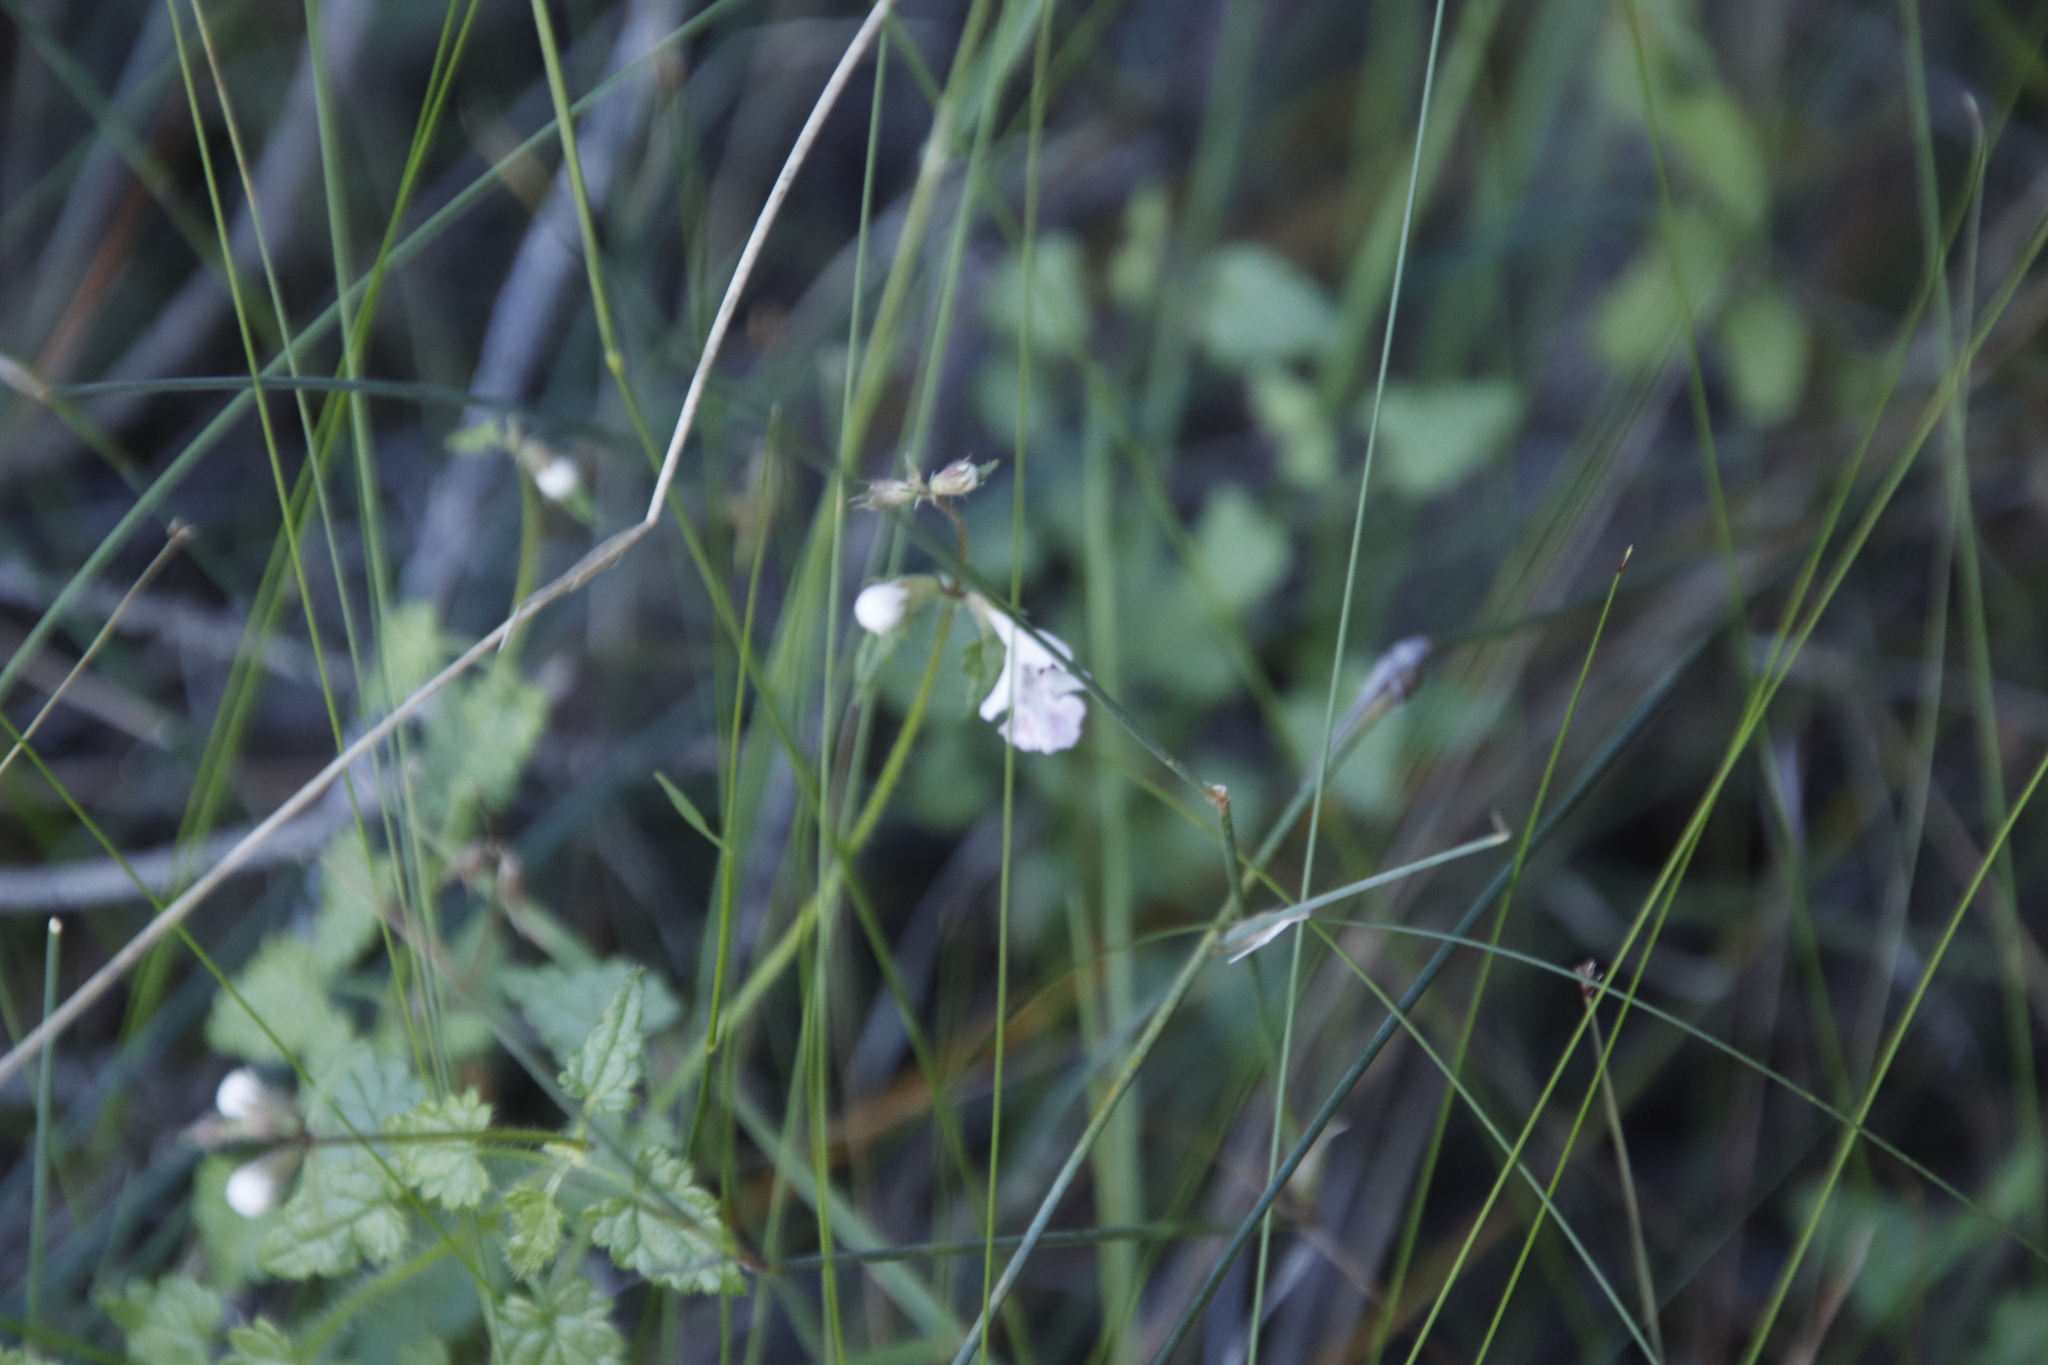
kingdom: Plantae
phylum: Tracheophyta
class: Magnoliopsida
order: Lamiales
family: Lamiaceae
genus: Stachys
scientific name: Stachys aethiopica
